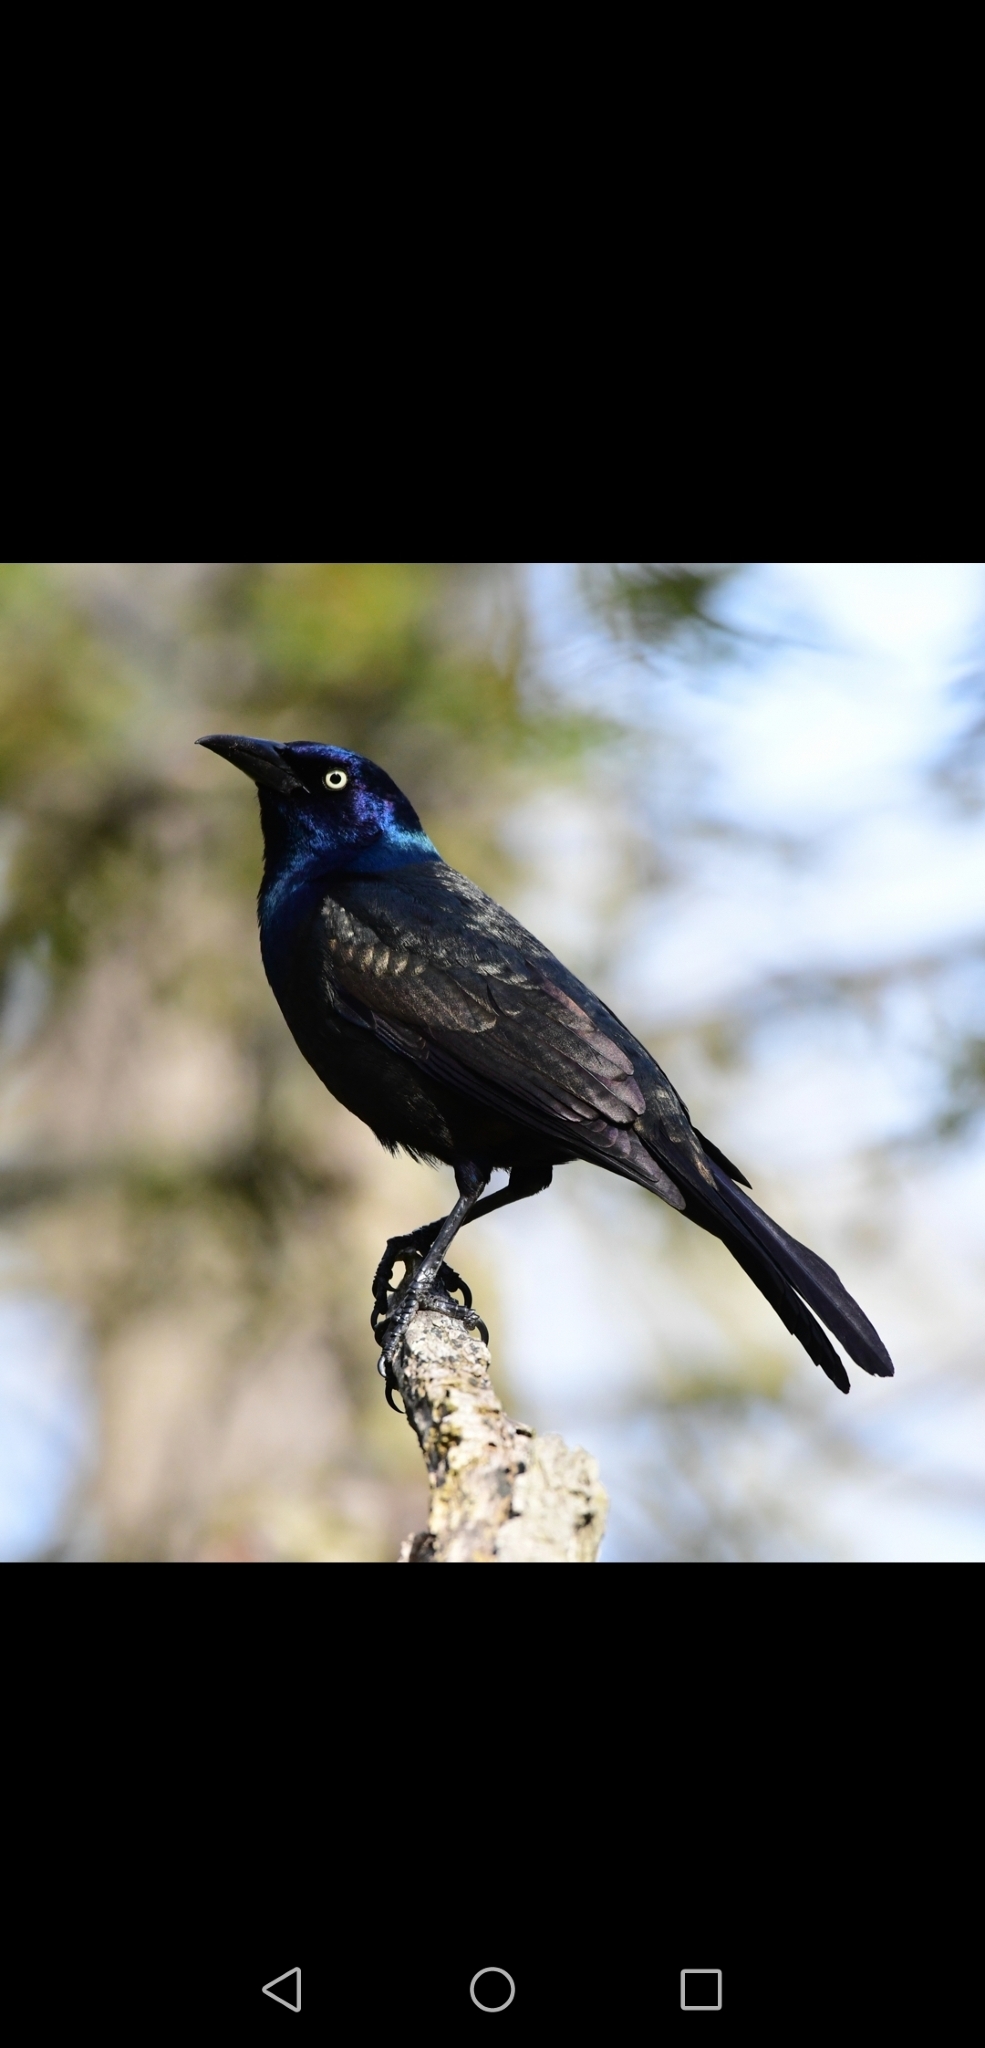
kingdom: Animalia
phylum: Chordata
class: Aves
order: Passeriformes
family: Icteridae
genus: Quiscalus
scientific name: Quiscalus quiscula
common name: Common grackle
